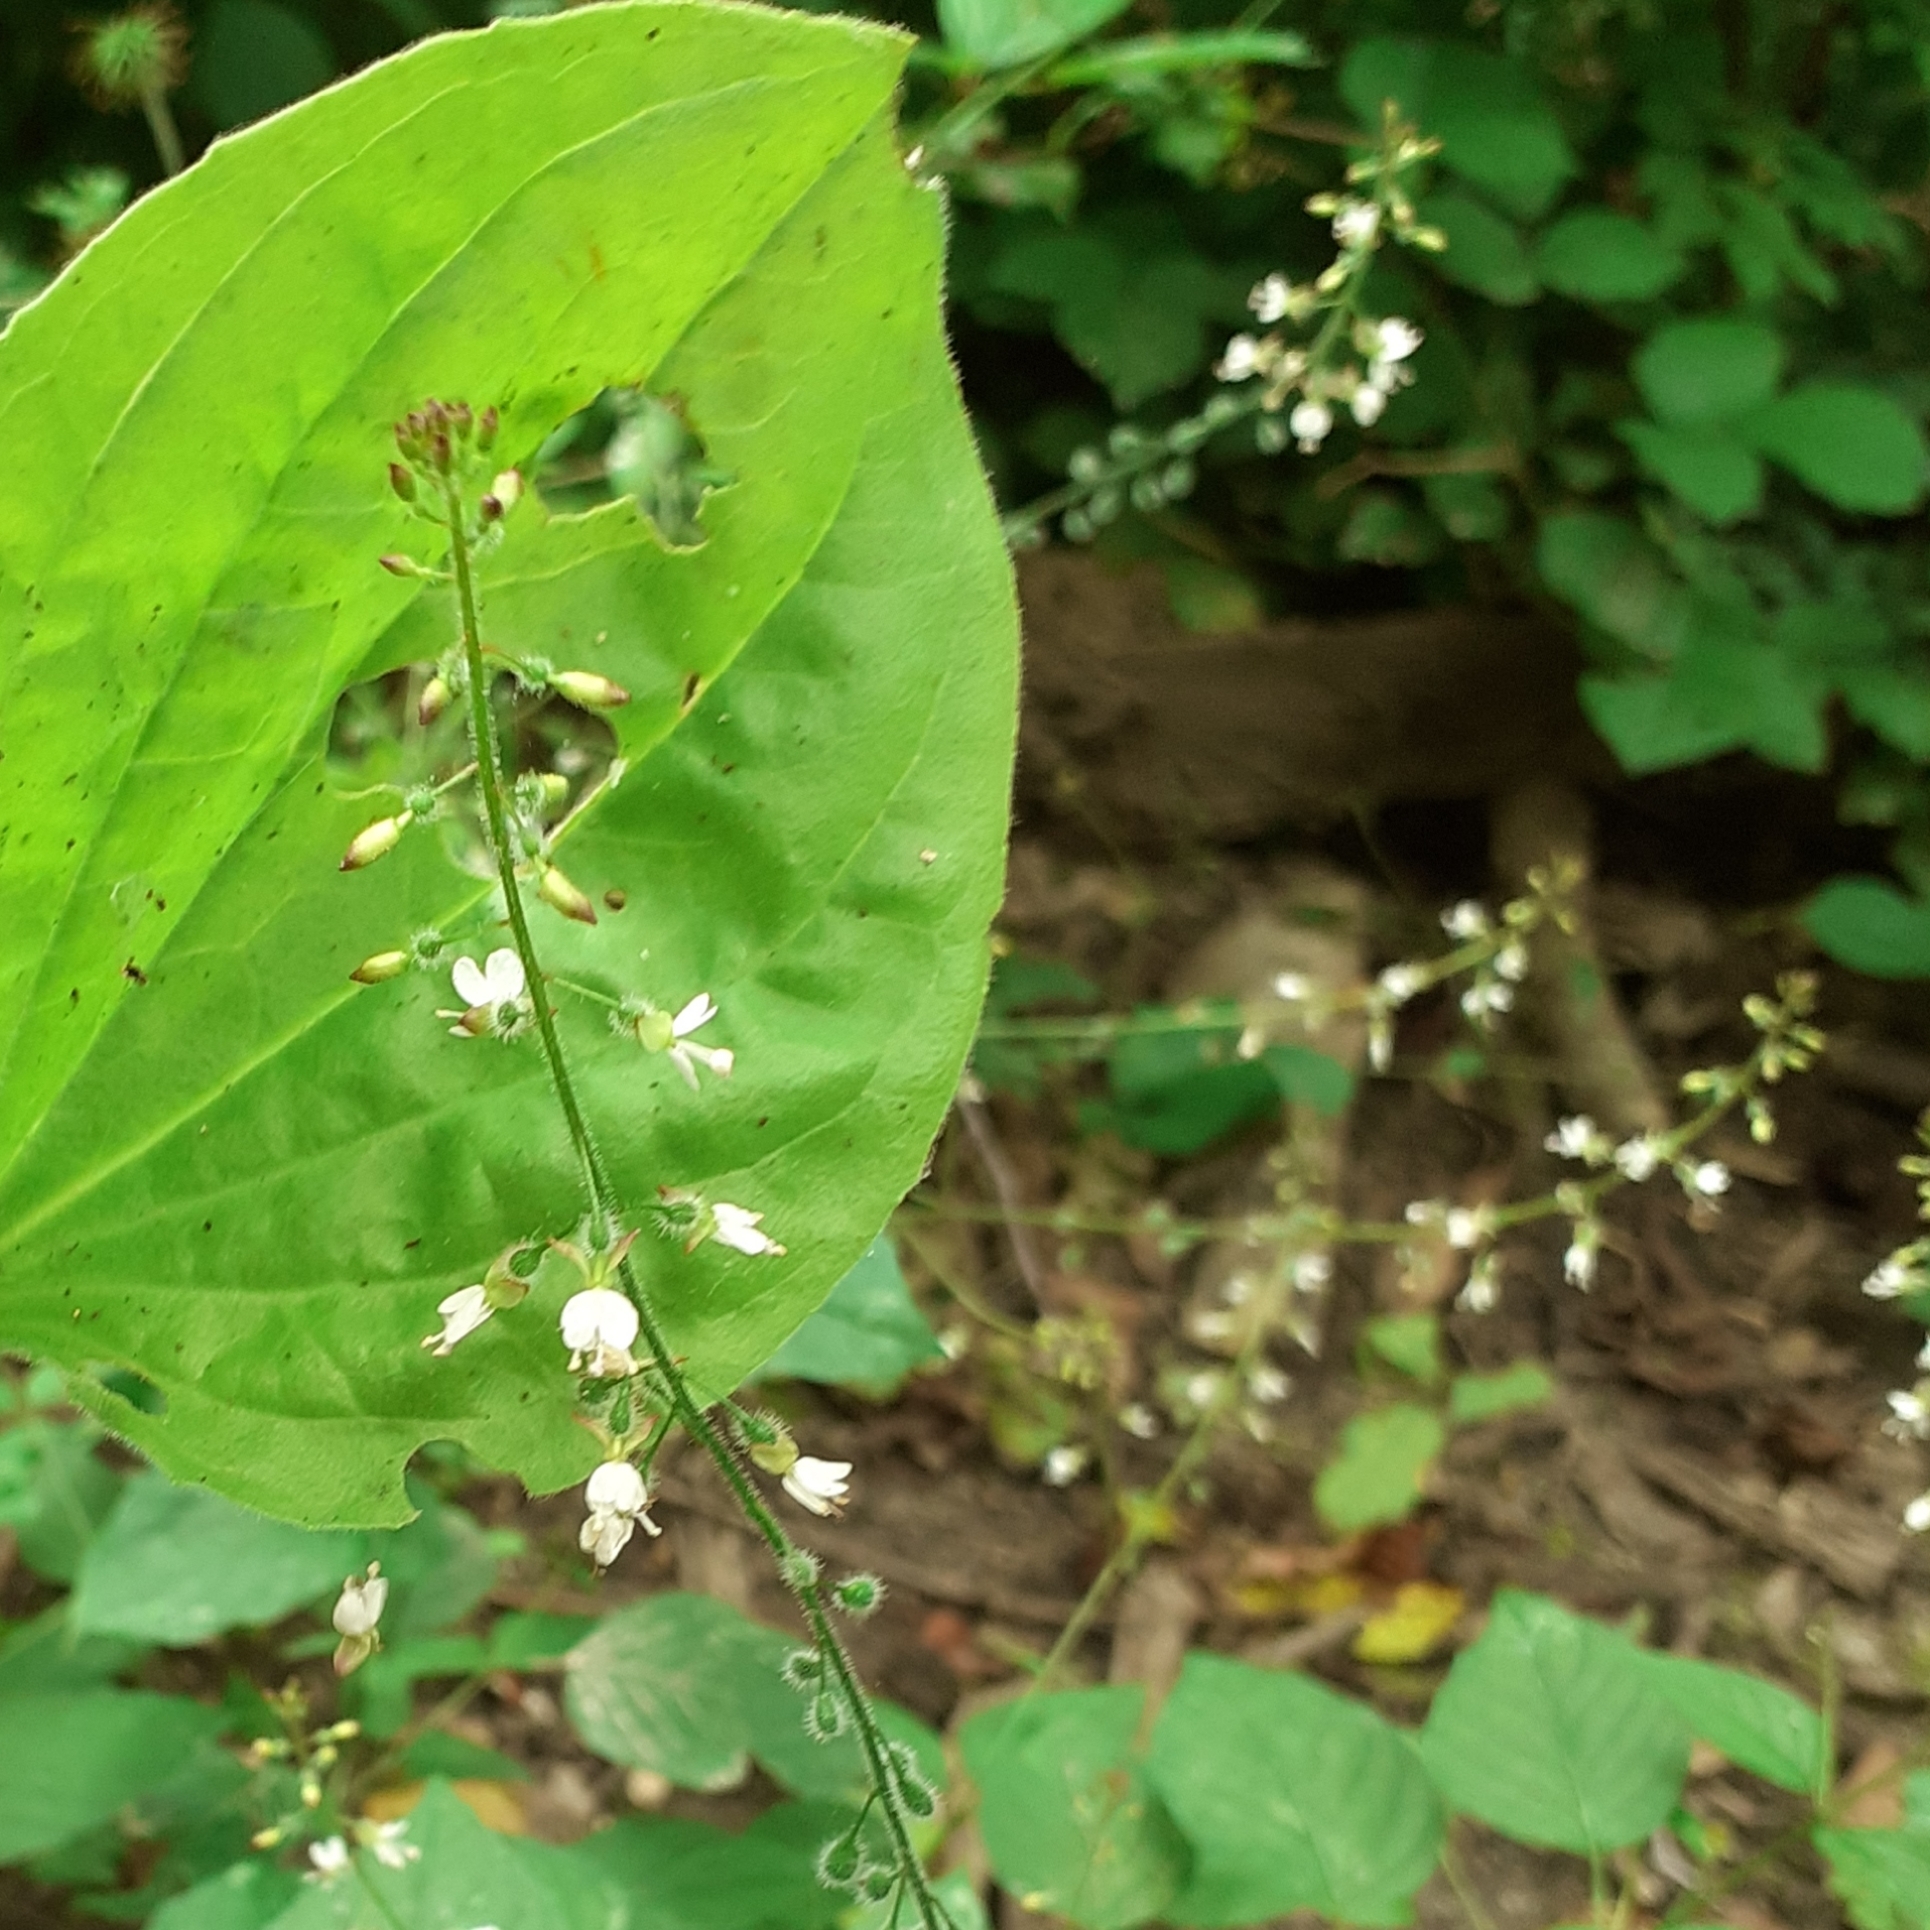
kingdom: Plantae
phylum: Tracheophyta
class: Magnoliopsida
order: Myrtales
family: Onagraceae
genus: Circaea
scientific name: Circaea lutetiana
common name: Enchanter's-nightshade
